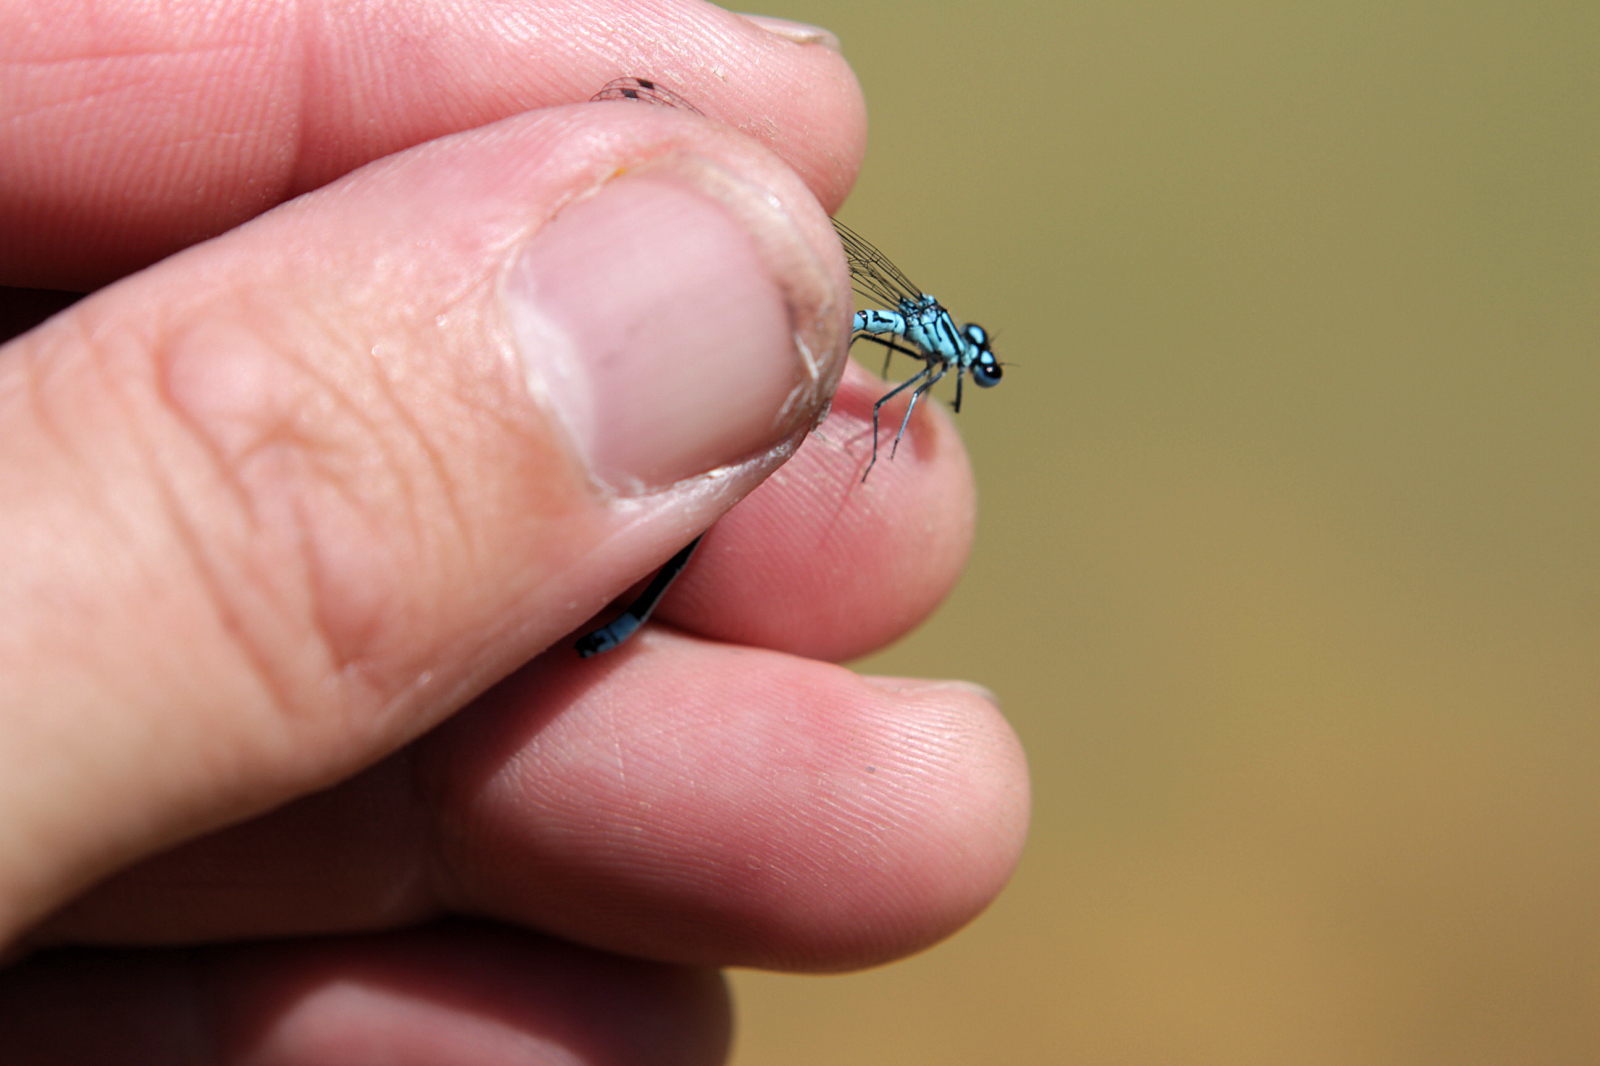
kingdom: Animalia
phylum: Arthropoda
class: Insecta
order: Odonata
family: Coenagrionidae
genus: Coenagrion
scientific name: Coenagrion puella
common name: Azure damselfly
